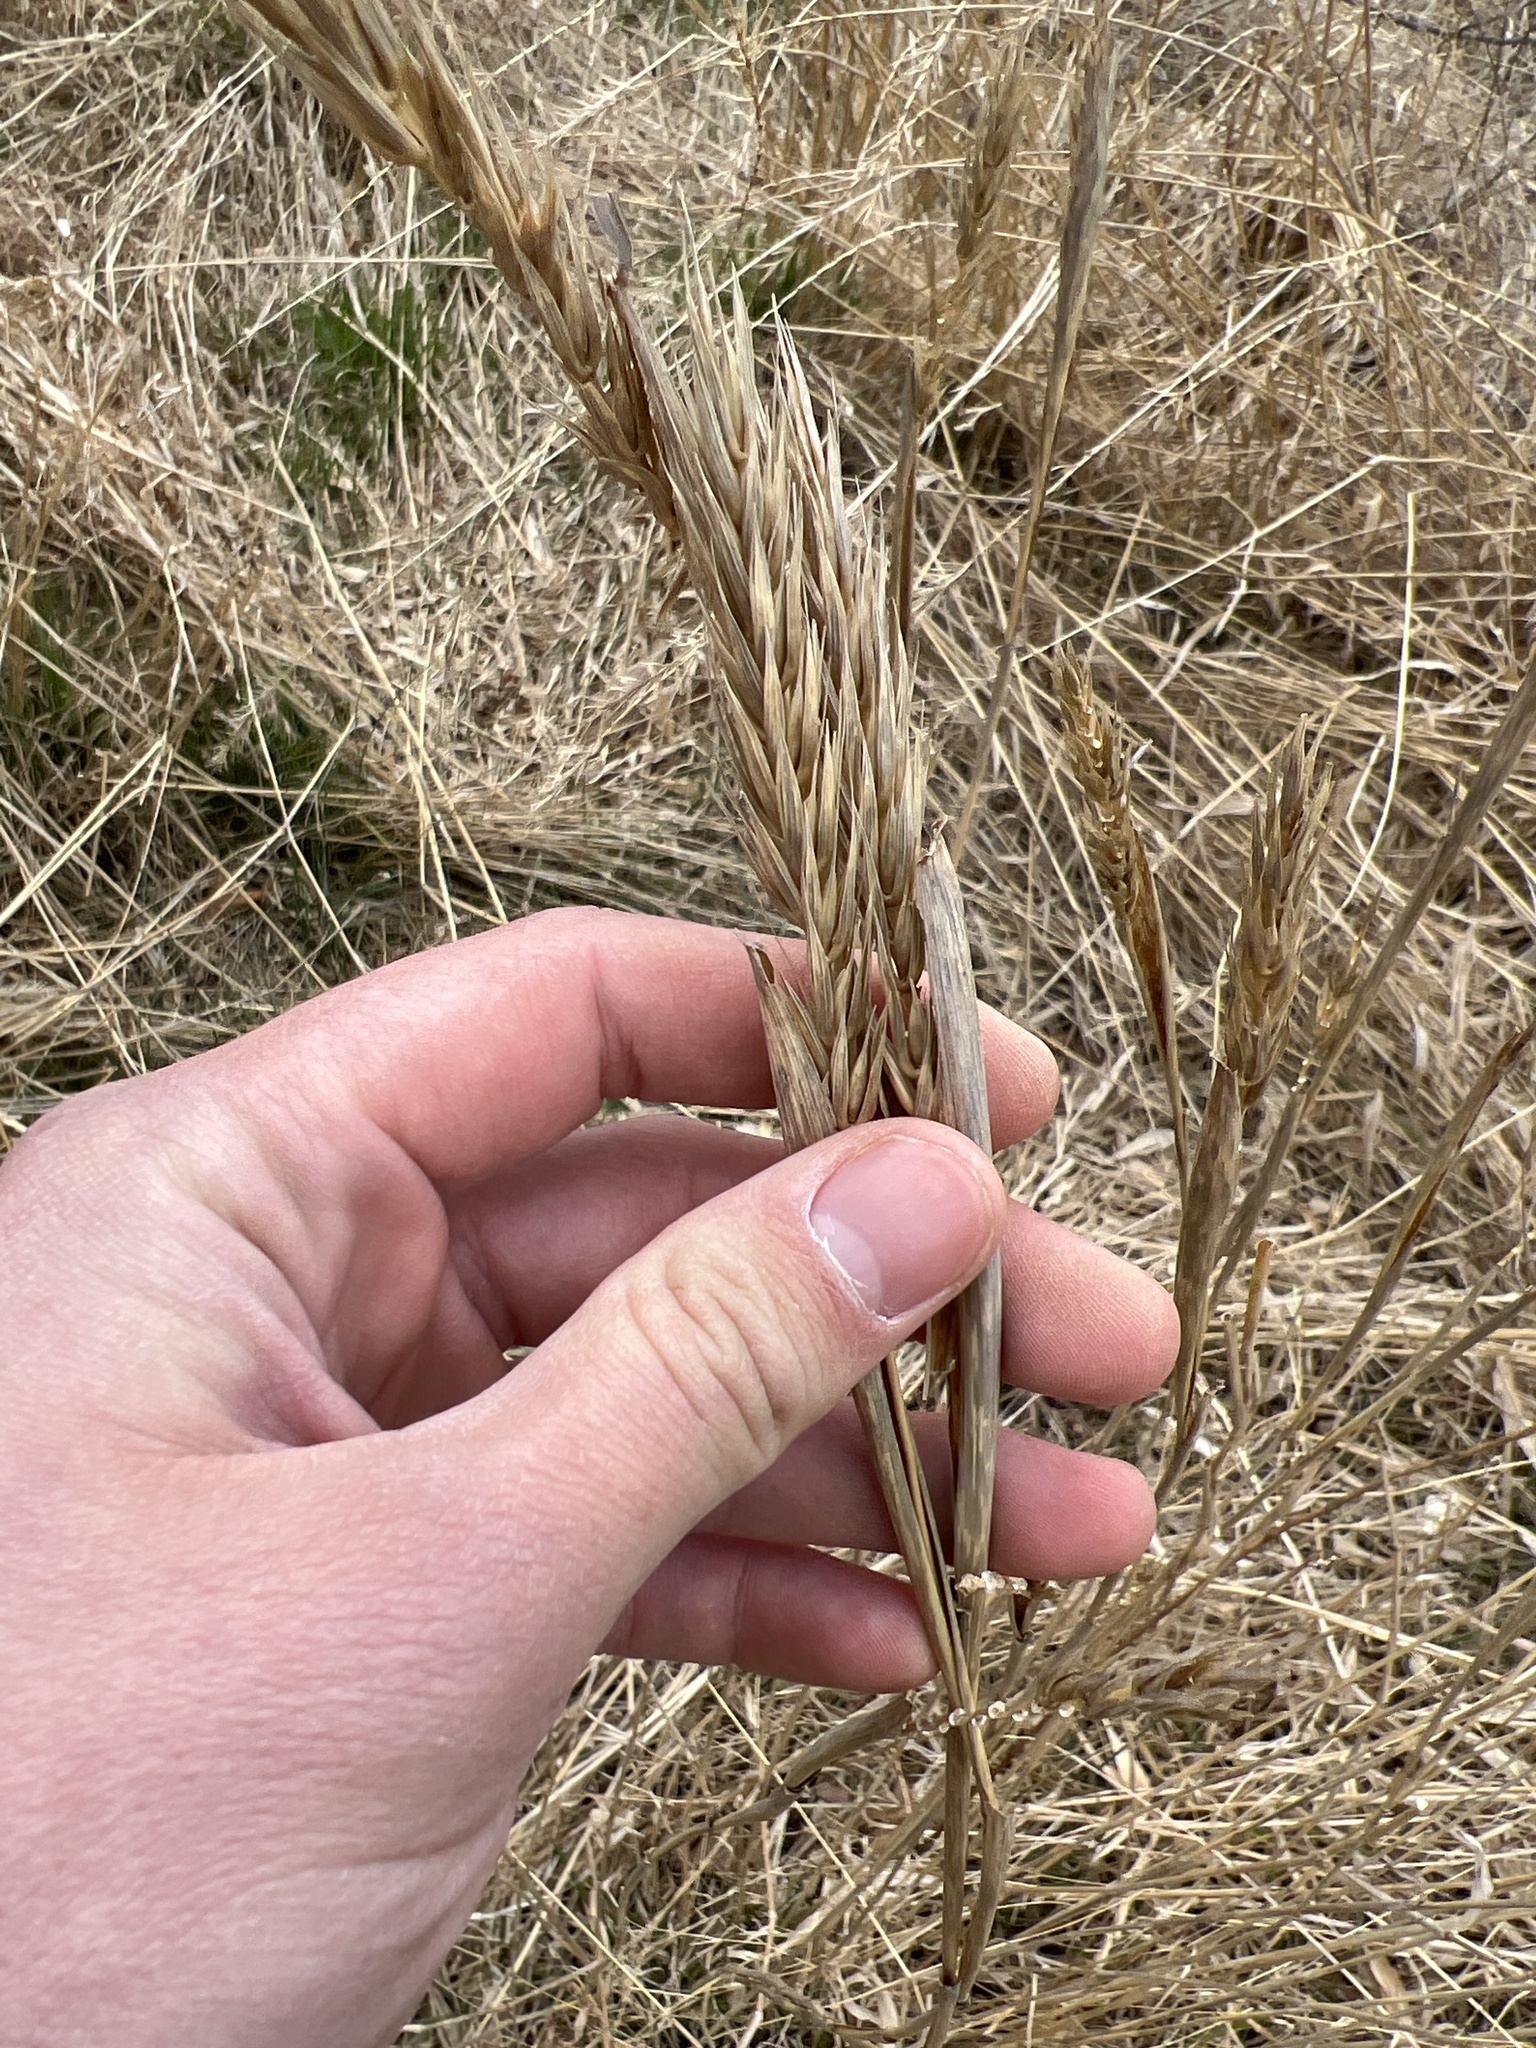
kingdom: Plantae
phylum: Tracheophyta
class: Liliopsida
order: Poales
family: Poaceae
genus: Elymus
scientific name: Elymus virginicus
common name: Common eastern wildrye
